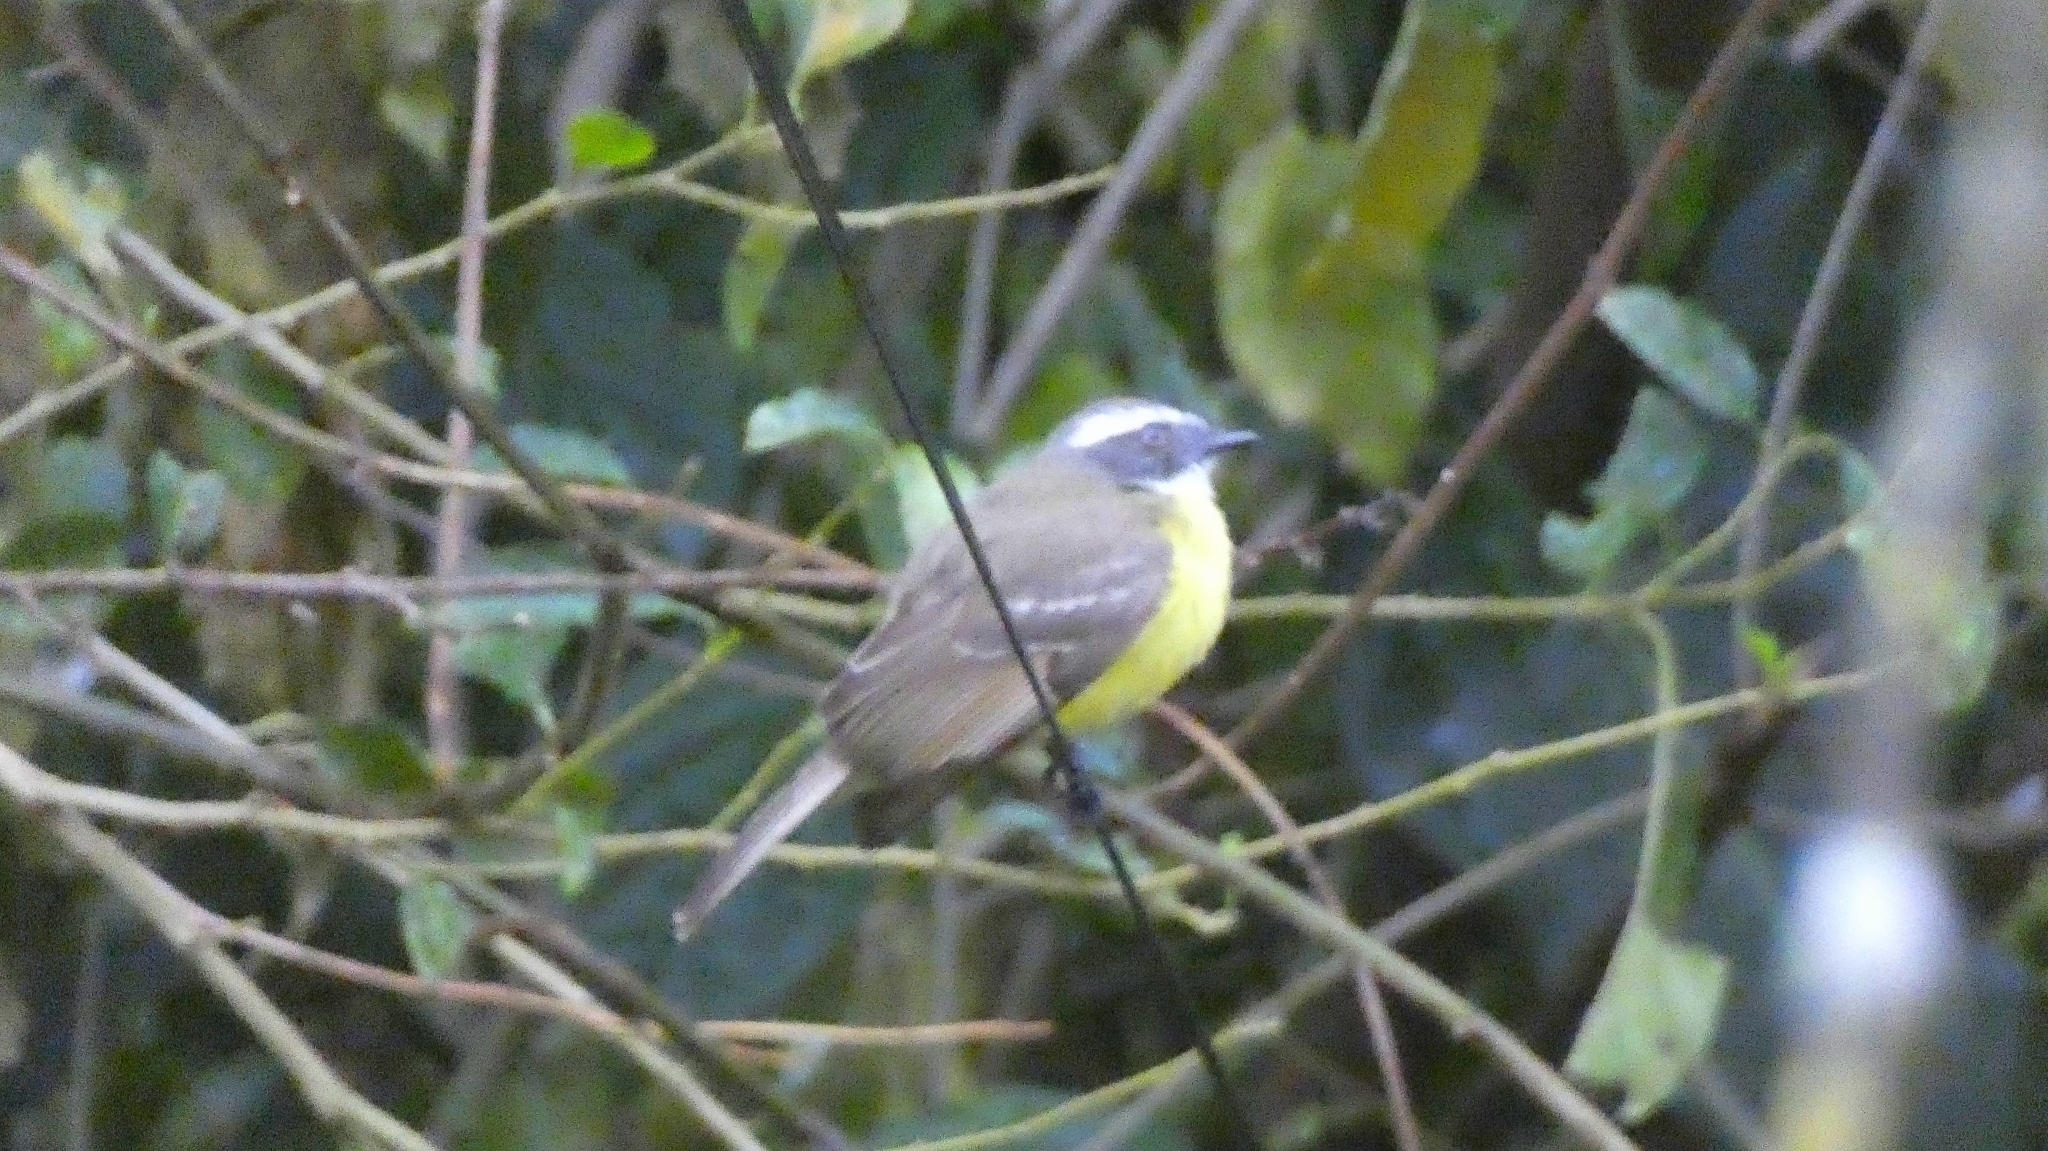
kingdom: Animalia
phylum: Chordata
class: Aves
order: Passeriformes
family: Tyrannidae
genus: Myiozetetes
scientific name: Myiozetetes similis
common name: Social flycatcher
